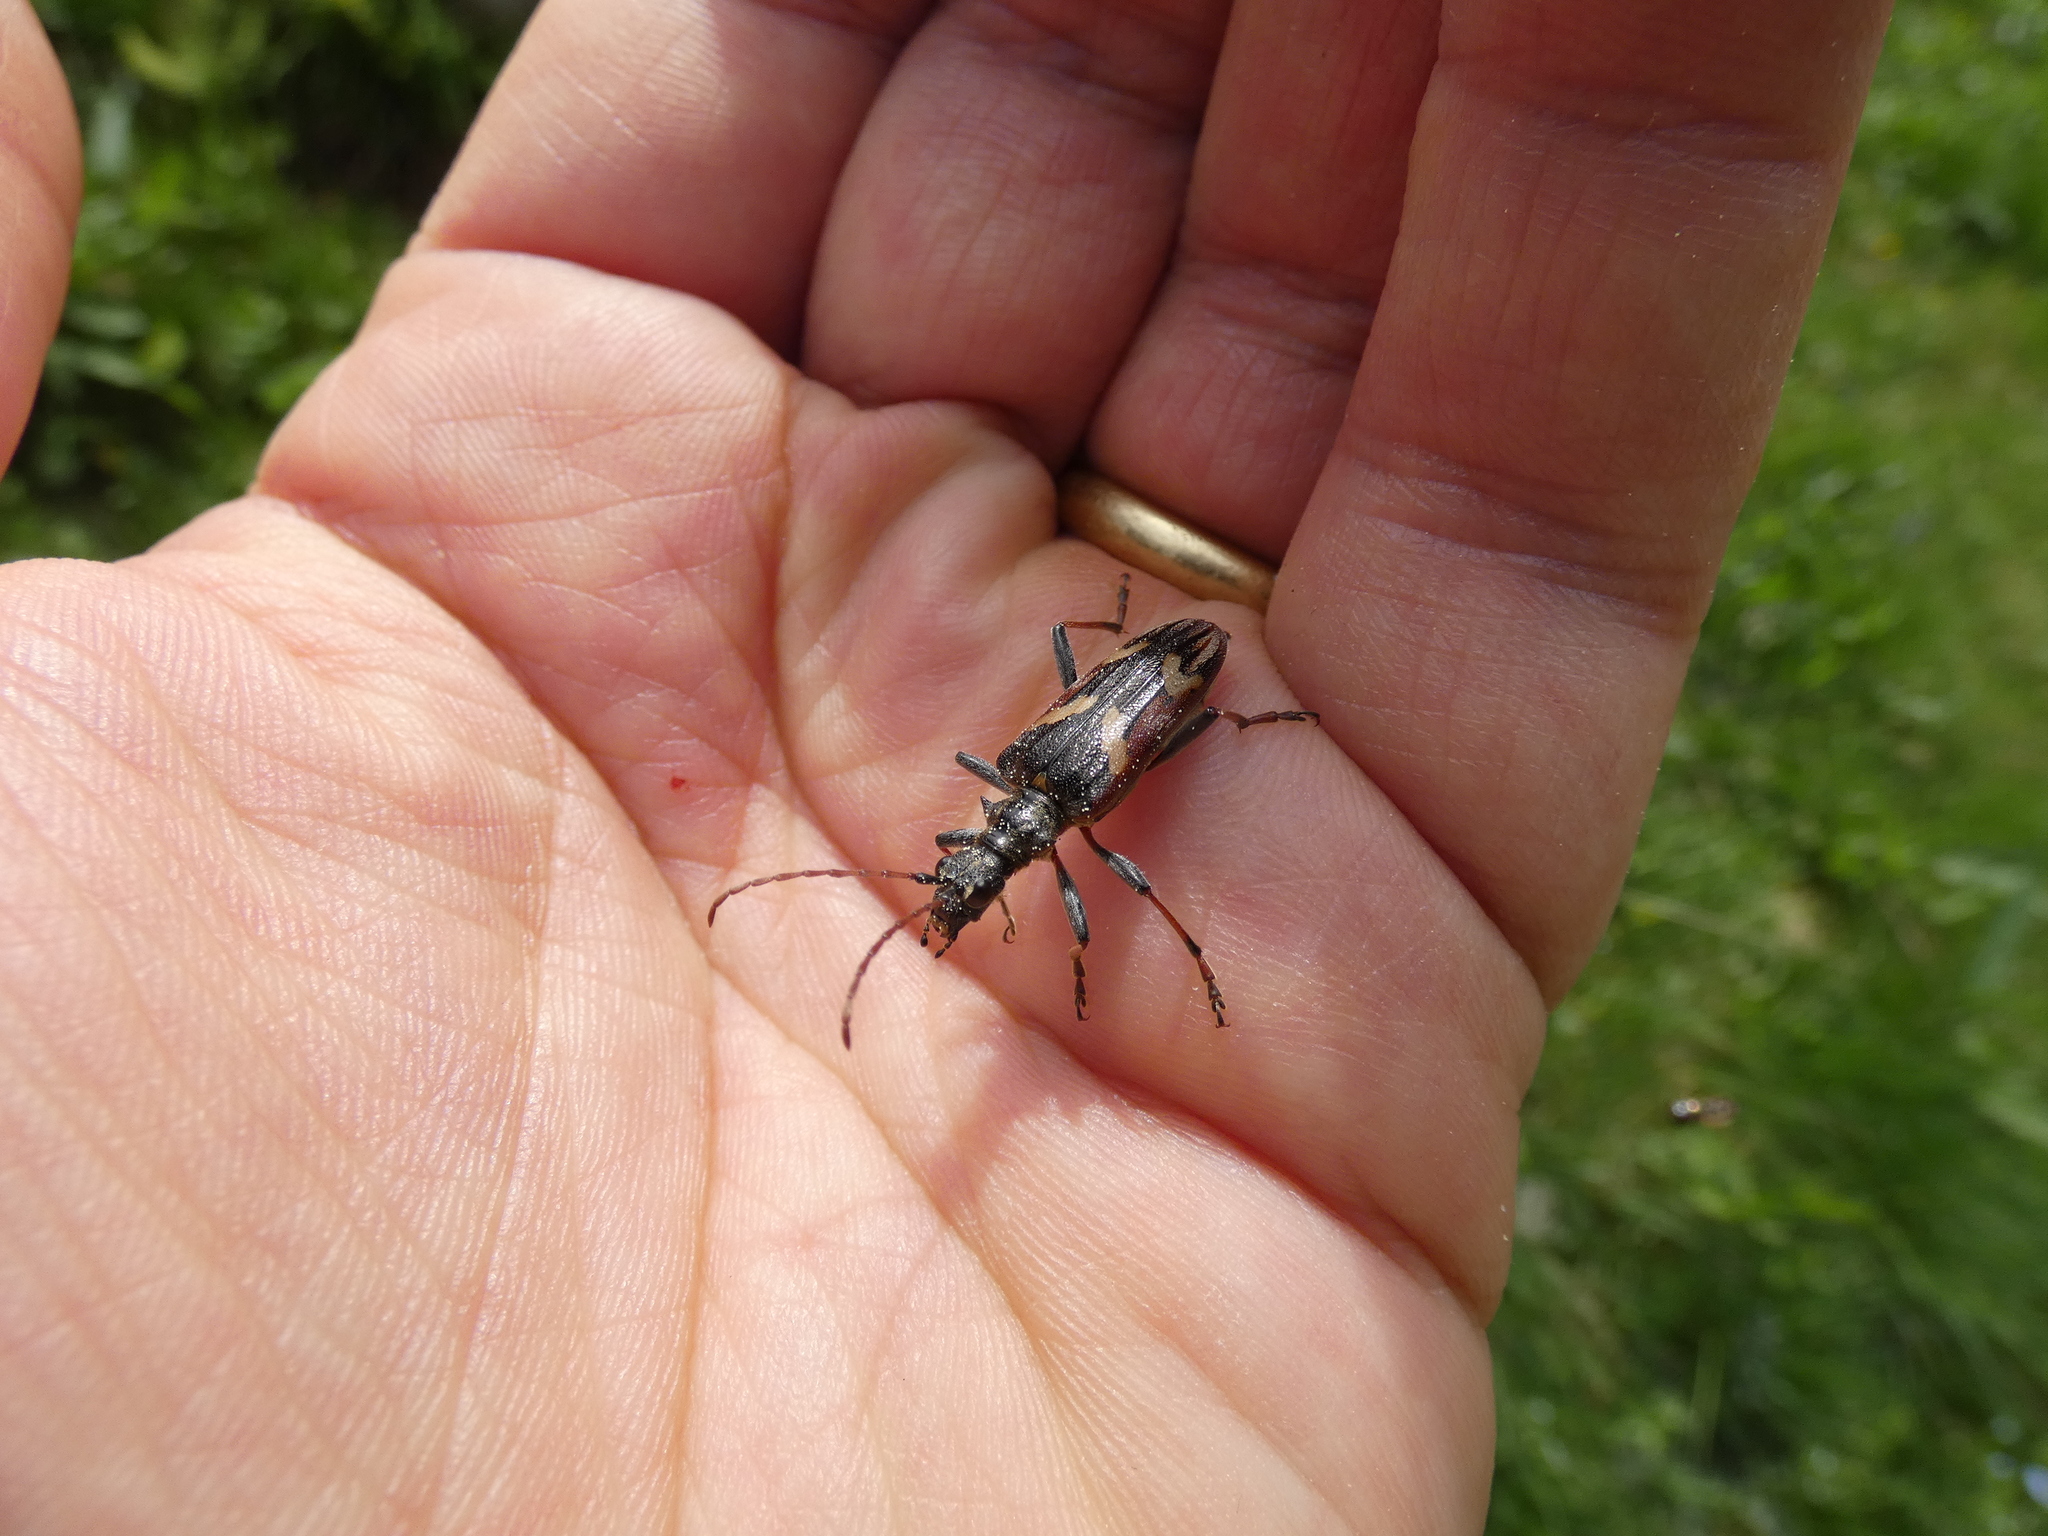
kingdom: Animalia
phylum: Arthropoda
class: Insecta
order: Coleoptera
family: Cerambycidae
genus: Rhagium
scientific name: Rhagium bifasciatum
